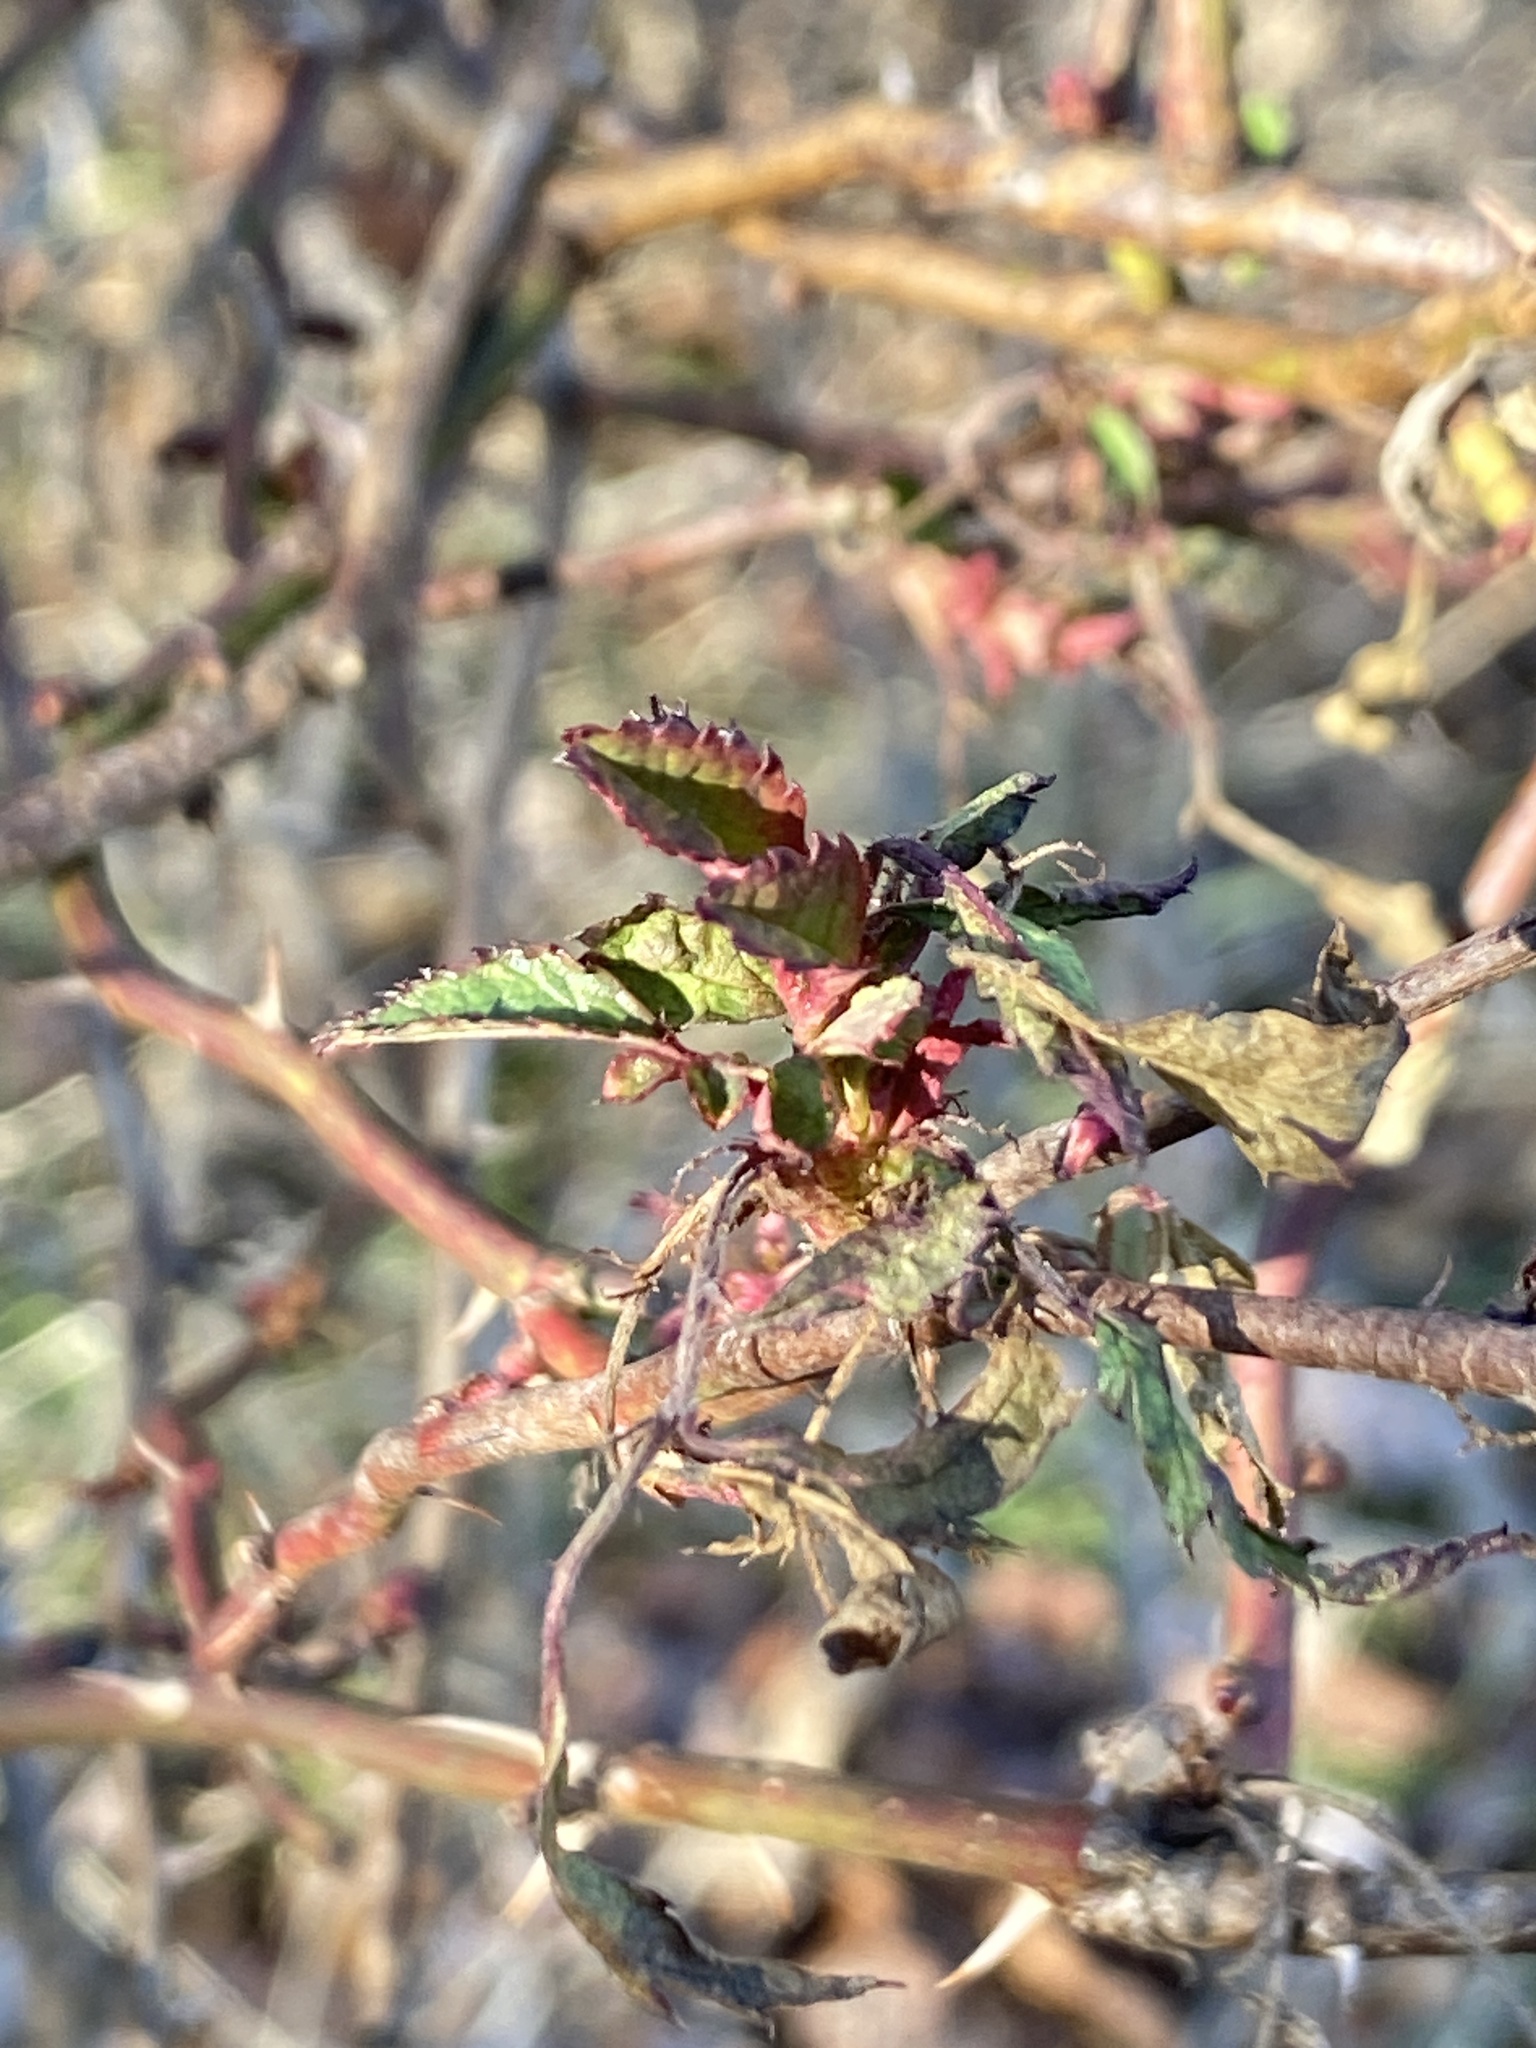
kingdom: Viruses
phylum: Negarnaviricota
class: Ellioviricetes
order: Bunyavirales
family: Fimoviridae
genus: Emaravirus
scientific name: Emaravirus rosae
